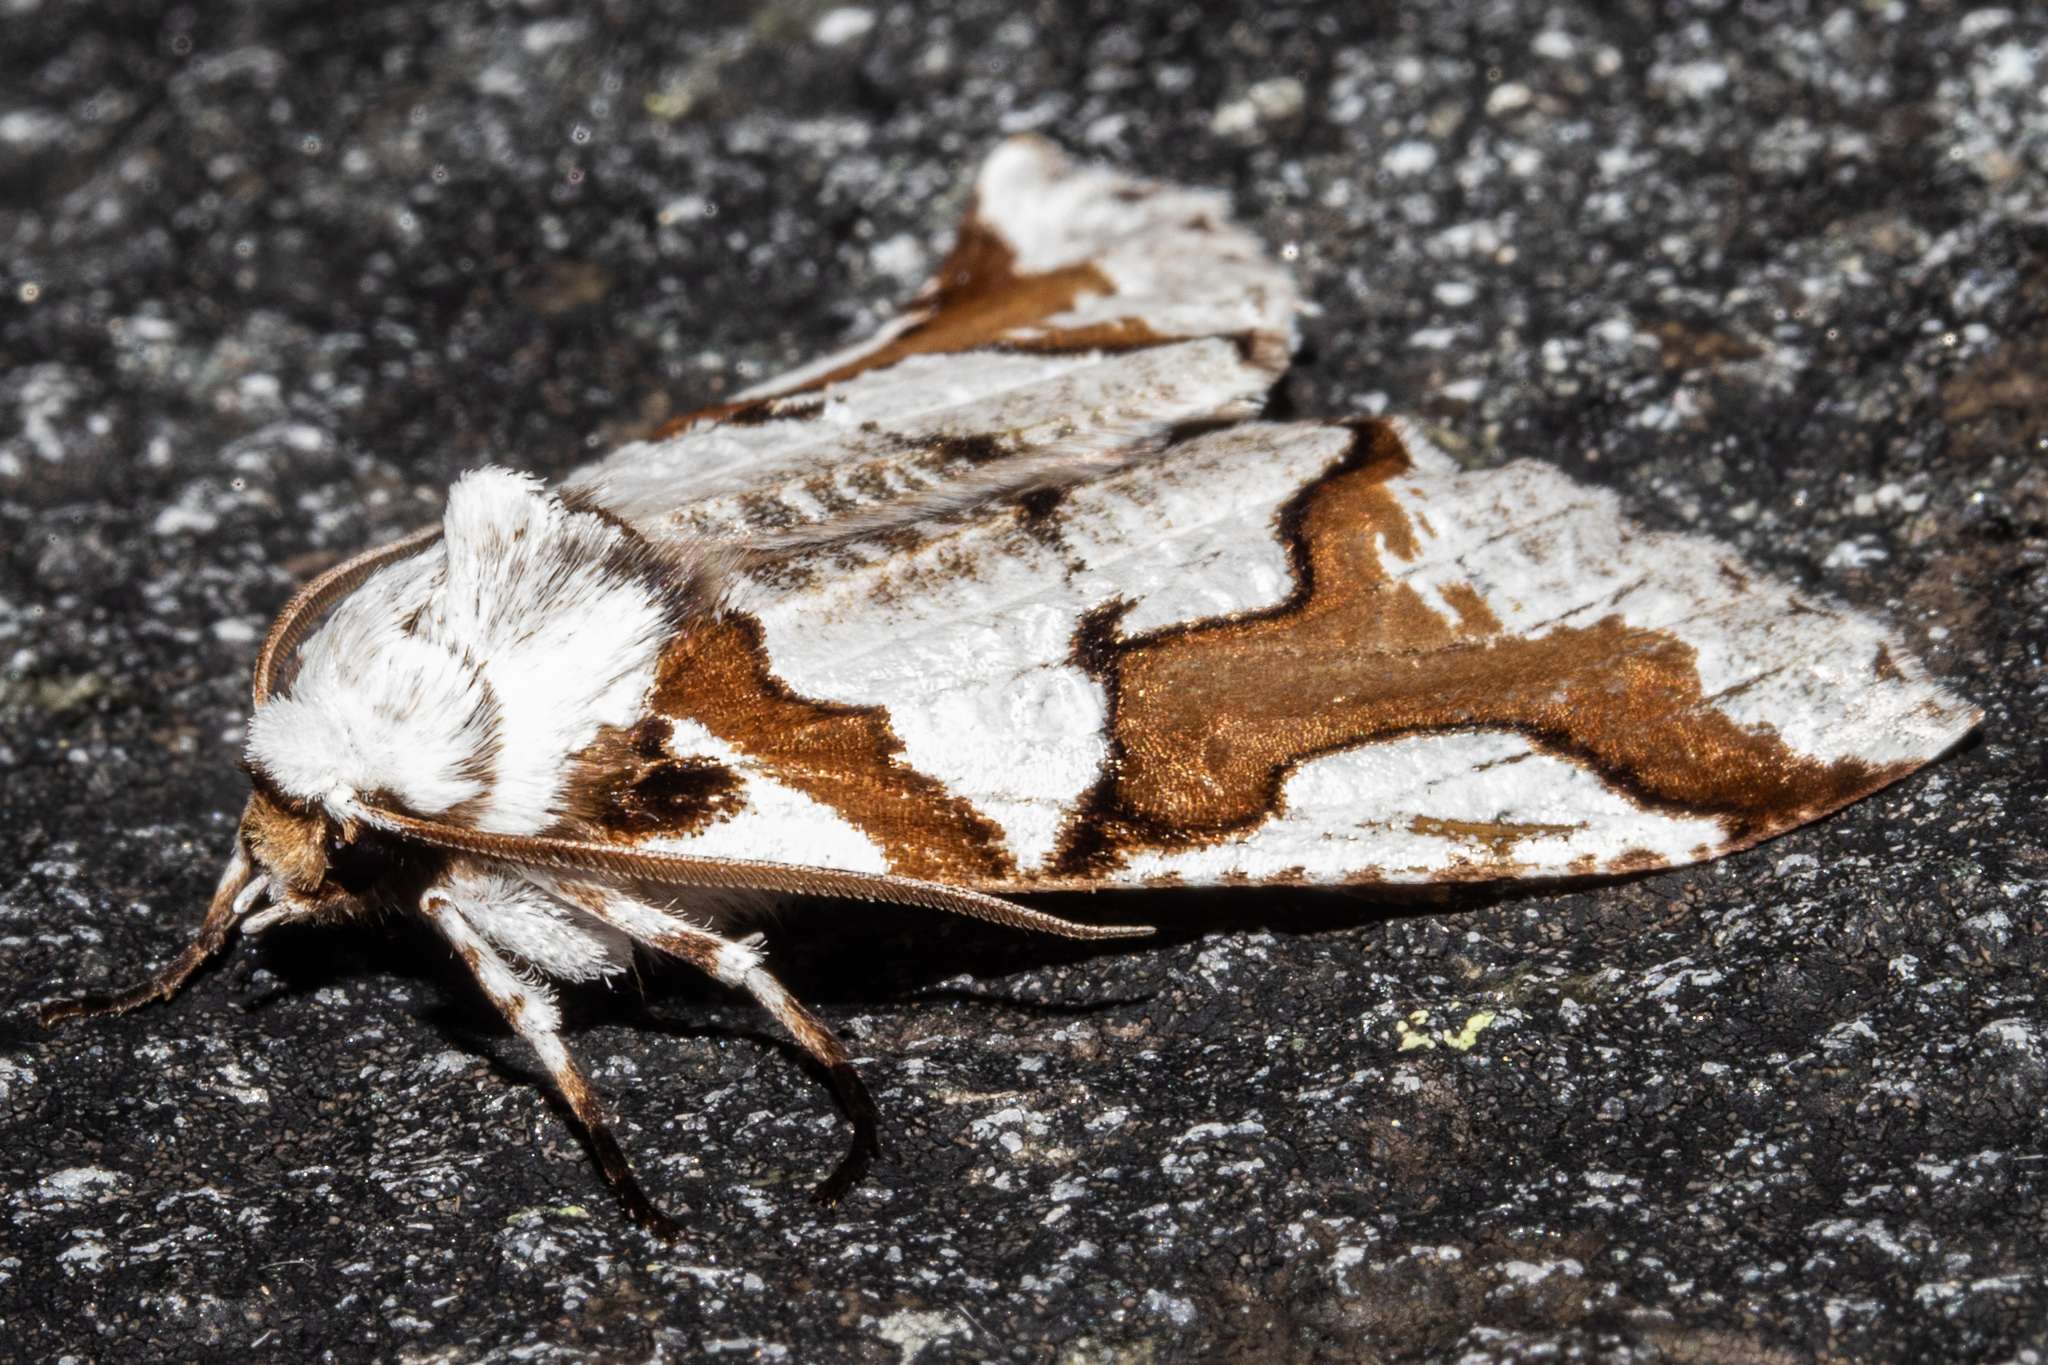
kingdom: Animalia
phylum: Arthropoda
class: Insecta
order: Lepidoptera
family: Geometridae
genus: Declana
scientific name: Declana
